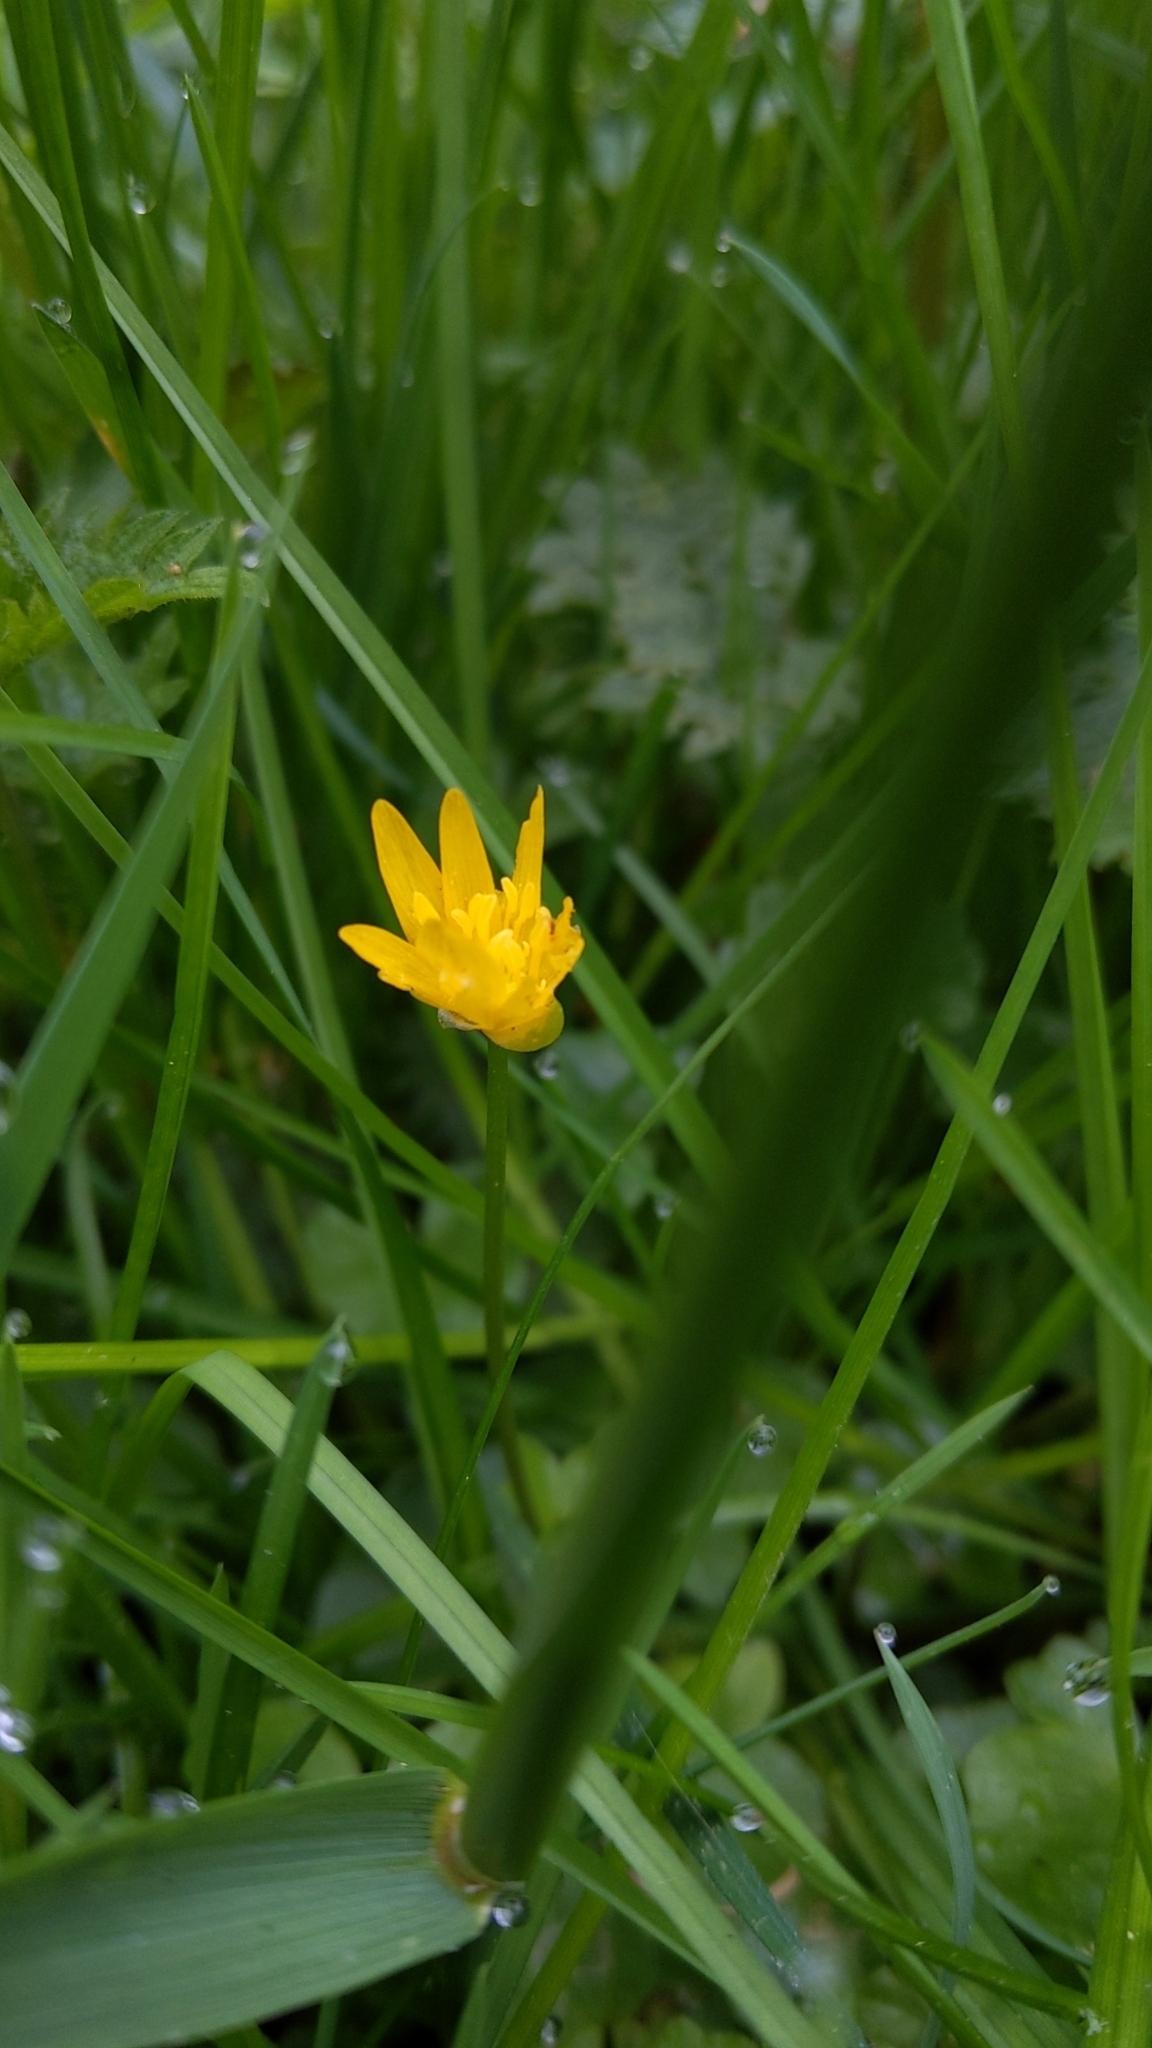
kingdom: Plantae
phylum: Tracheophyta
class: Magnoliopsida
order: Ranunculales
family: Ranunculaceae
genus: Ficaria
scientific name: Ficaria verna
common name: Lesser celandine
